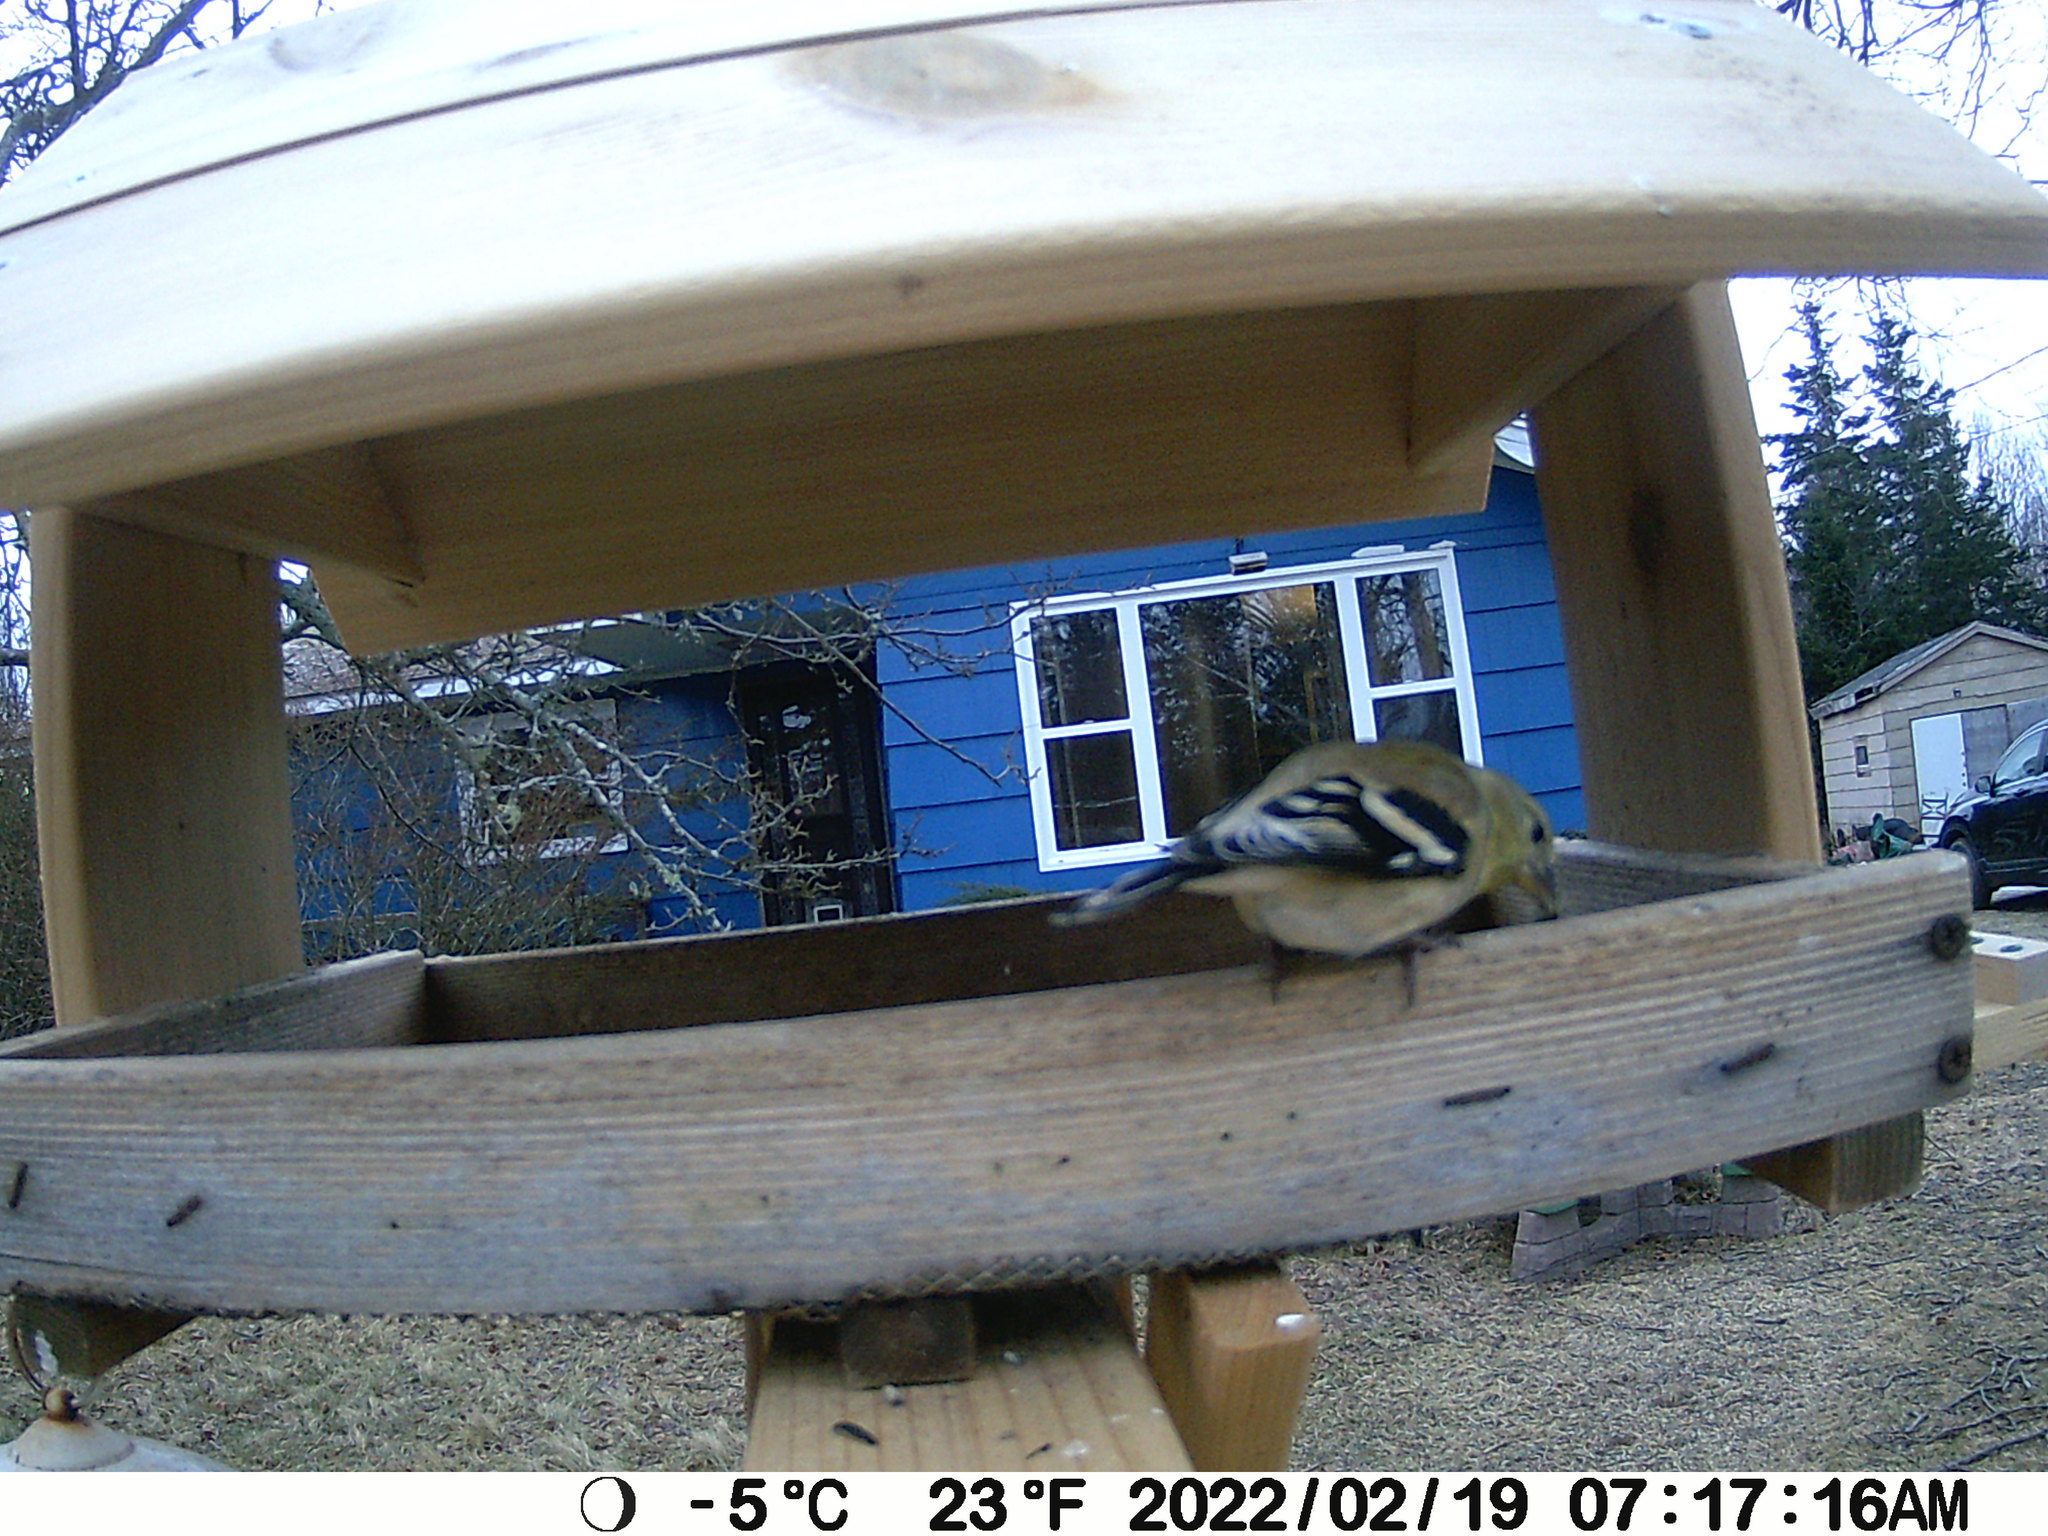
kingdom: Animalia
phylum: Chordata
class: Aves
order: Passeriformes
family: Fringillidae
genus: Spinus
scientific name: Spinus tristis
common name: American goldfinch
